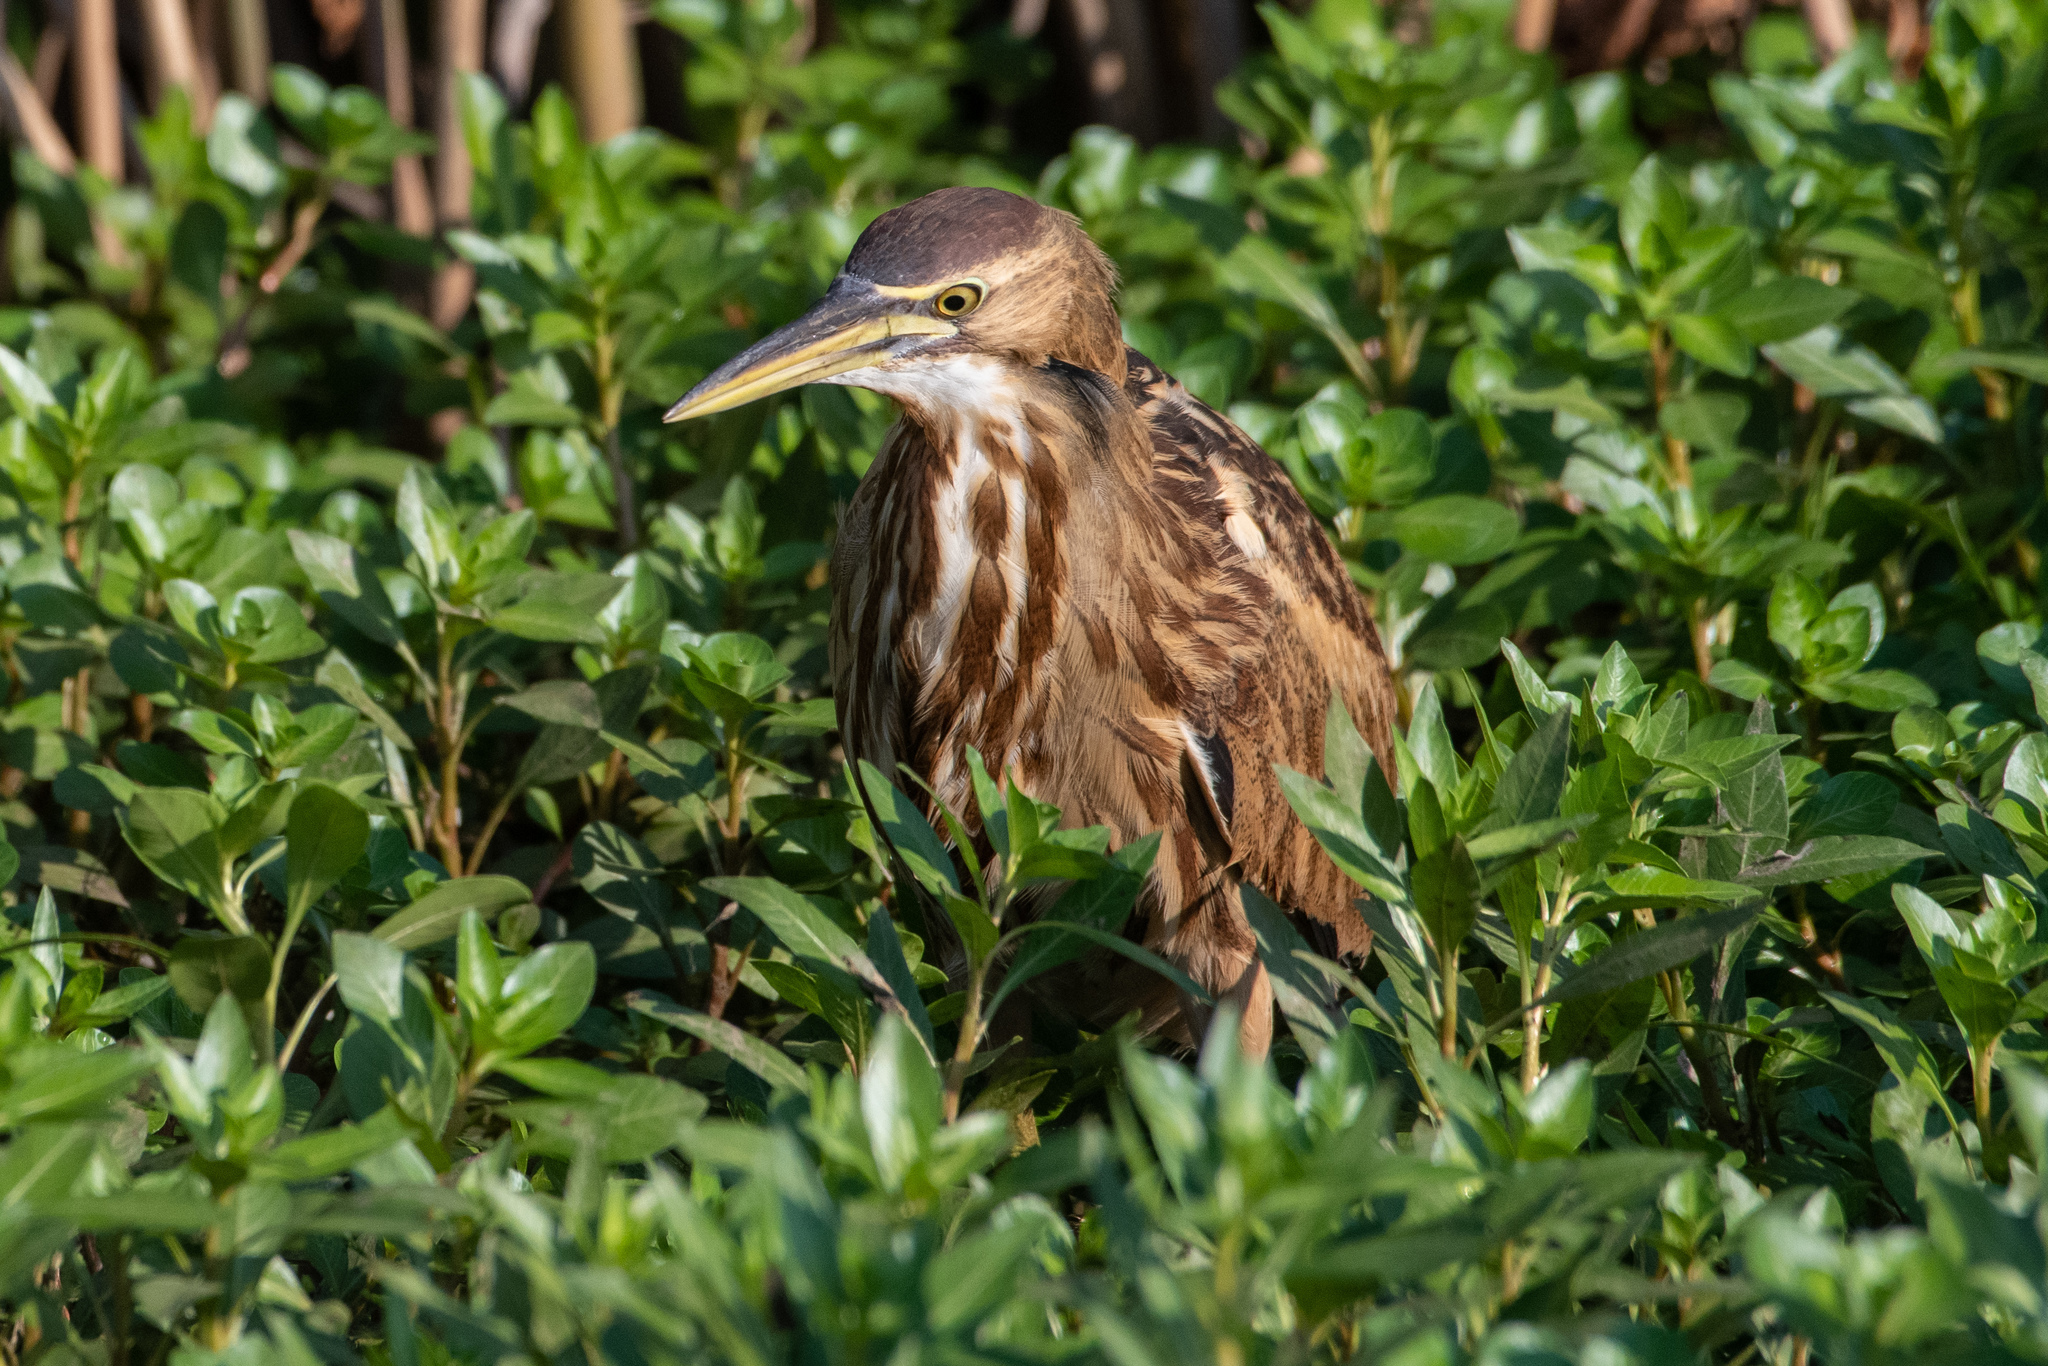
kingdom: Animalia
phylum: Chordata
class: Aves
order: Pelecaniformes
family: Ardeidae
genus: Botaurus
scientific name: Botaurus lentiginosus
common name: American bittern
